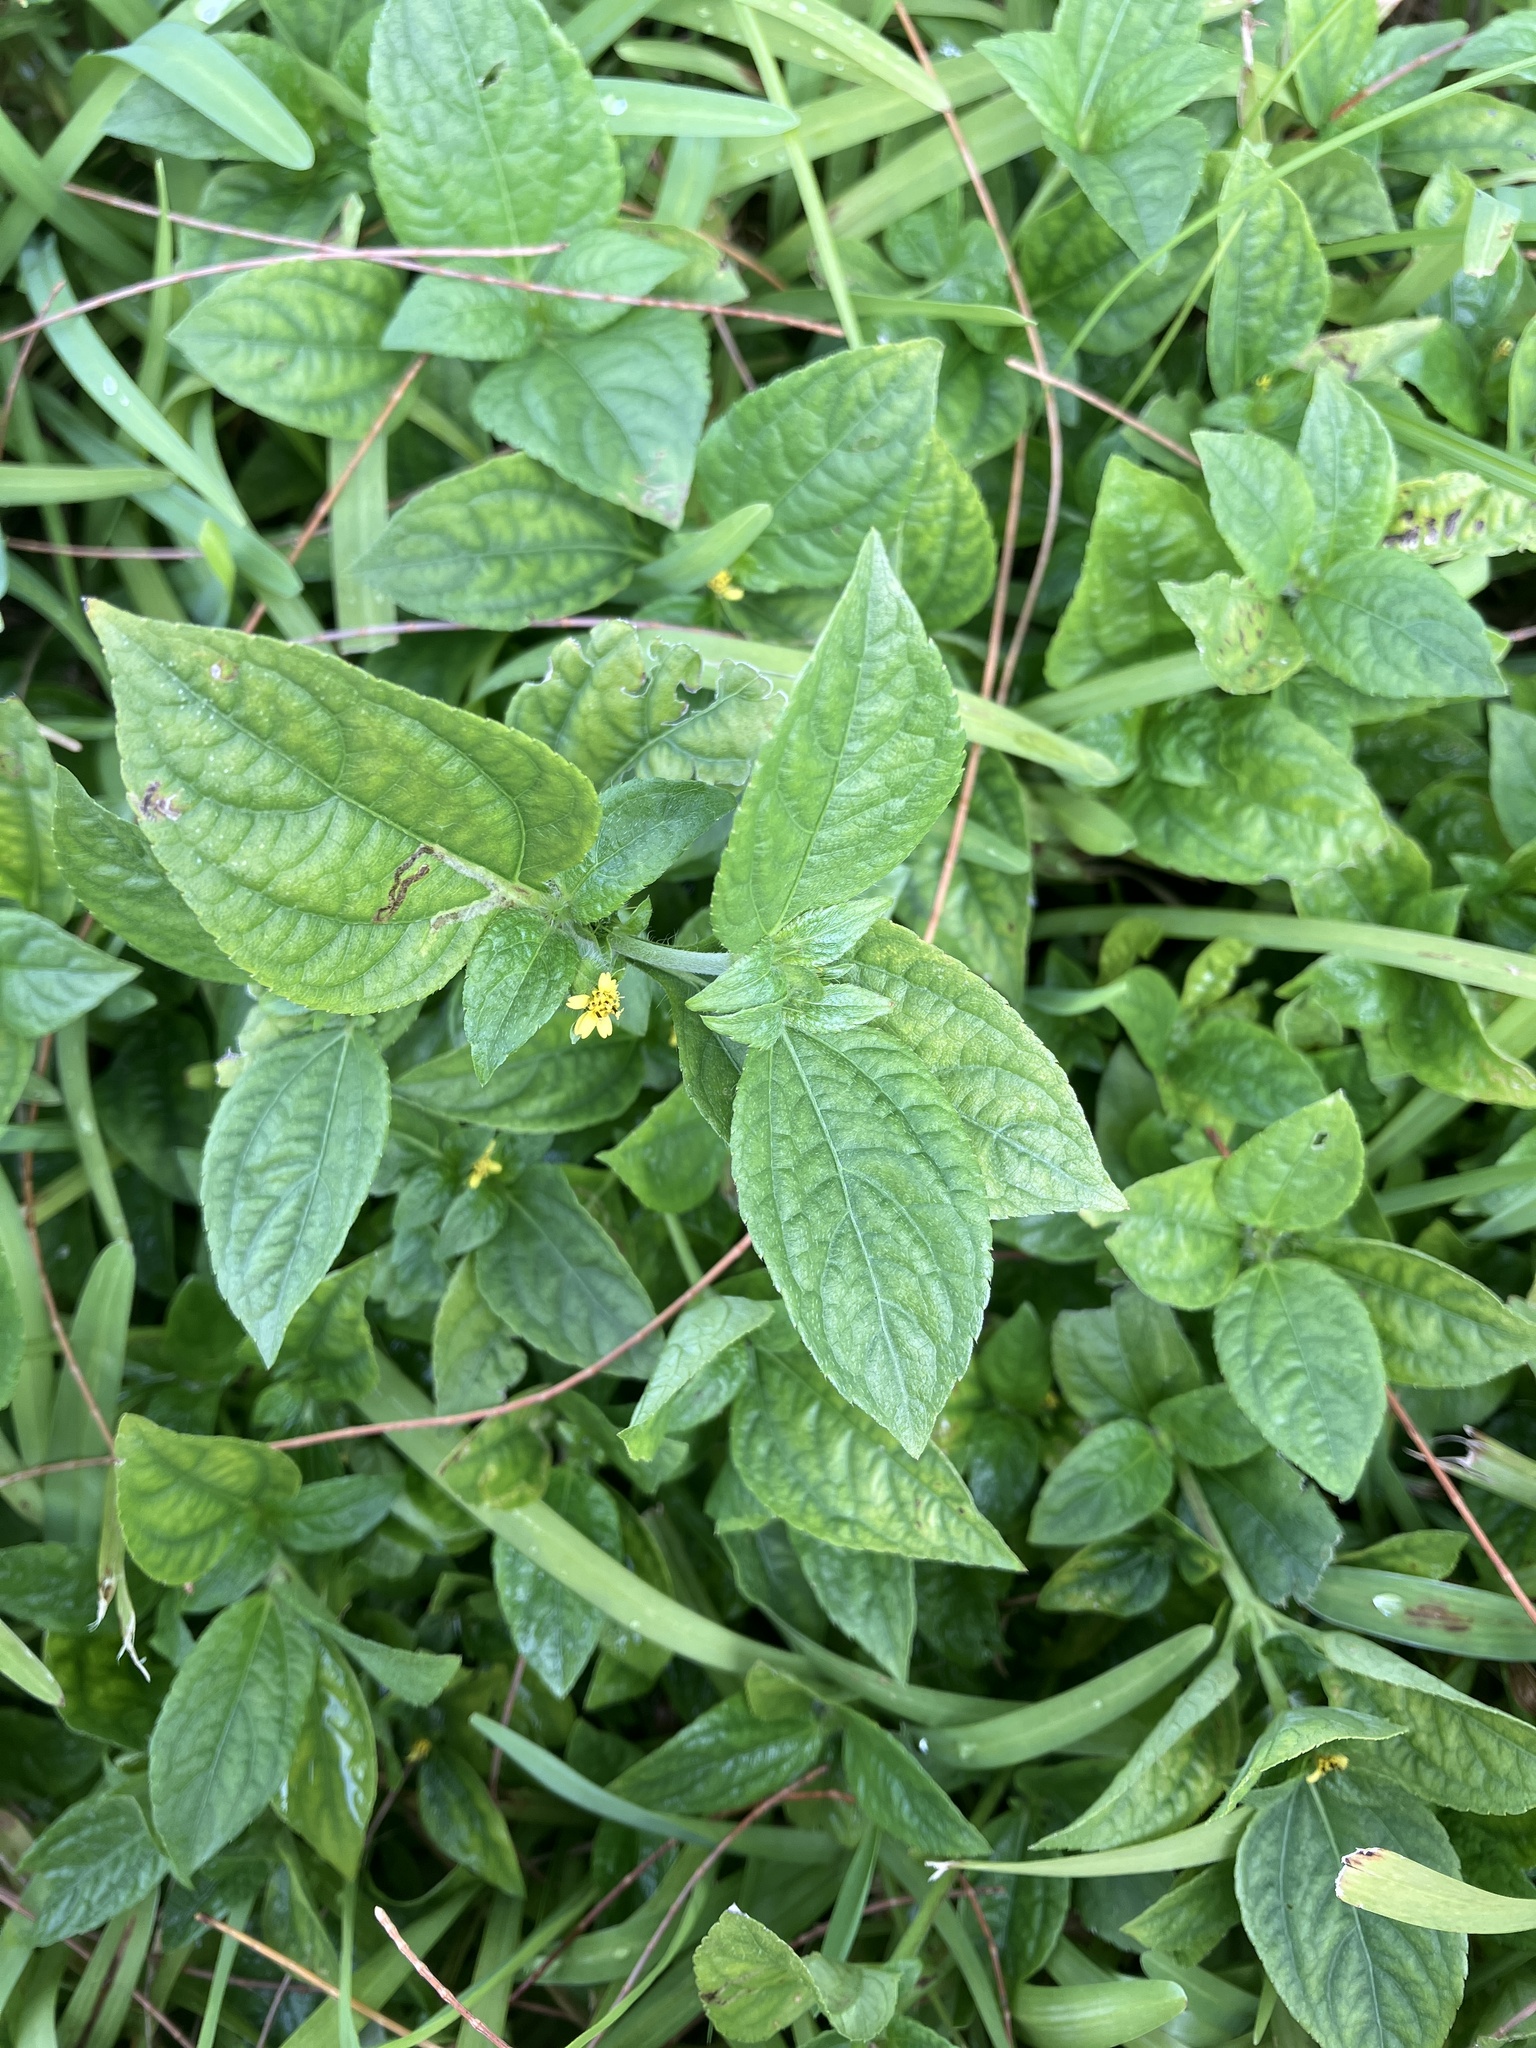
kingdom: Plantae
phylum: Tracheophyta
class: Magnoliopsida
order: Asterales
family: Asteraceae
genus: Synedrella
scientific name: Synedrella nodiflora
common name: Nodeweed
